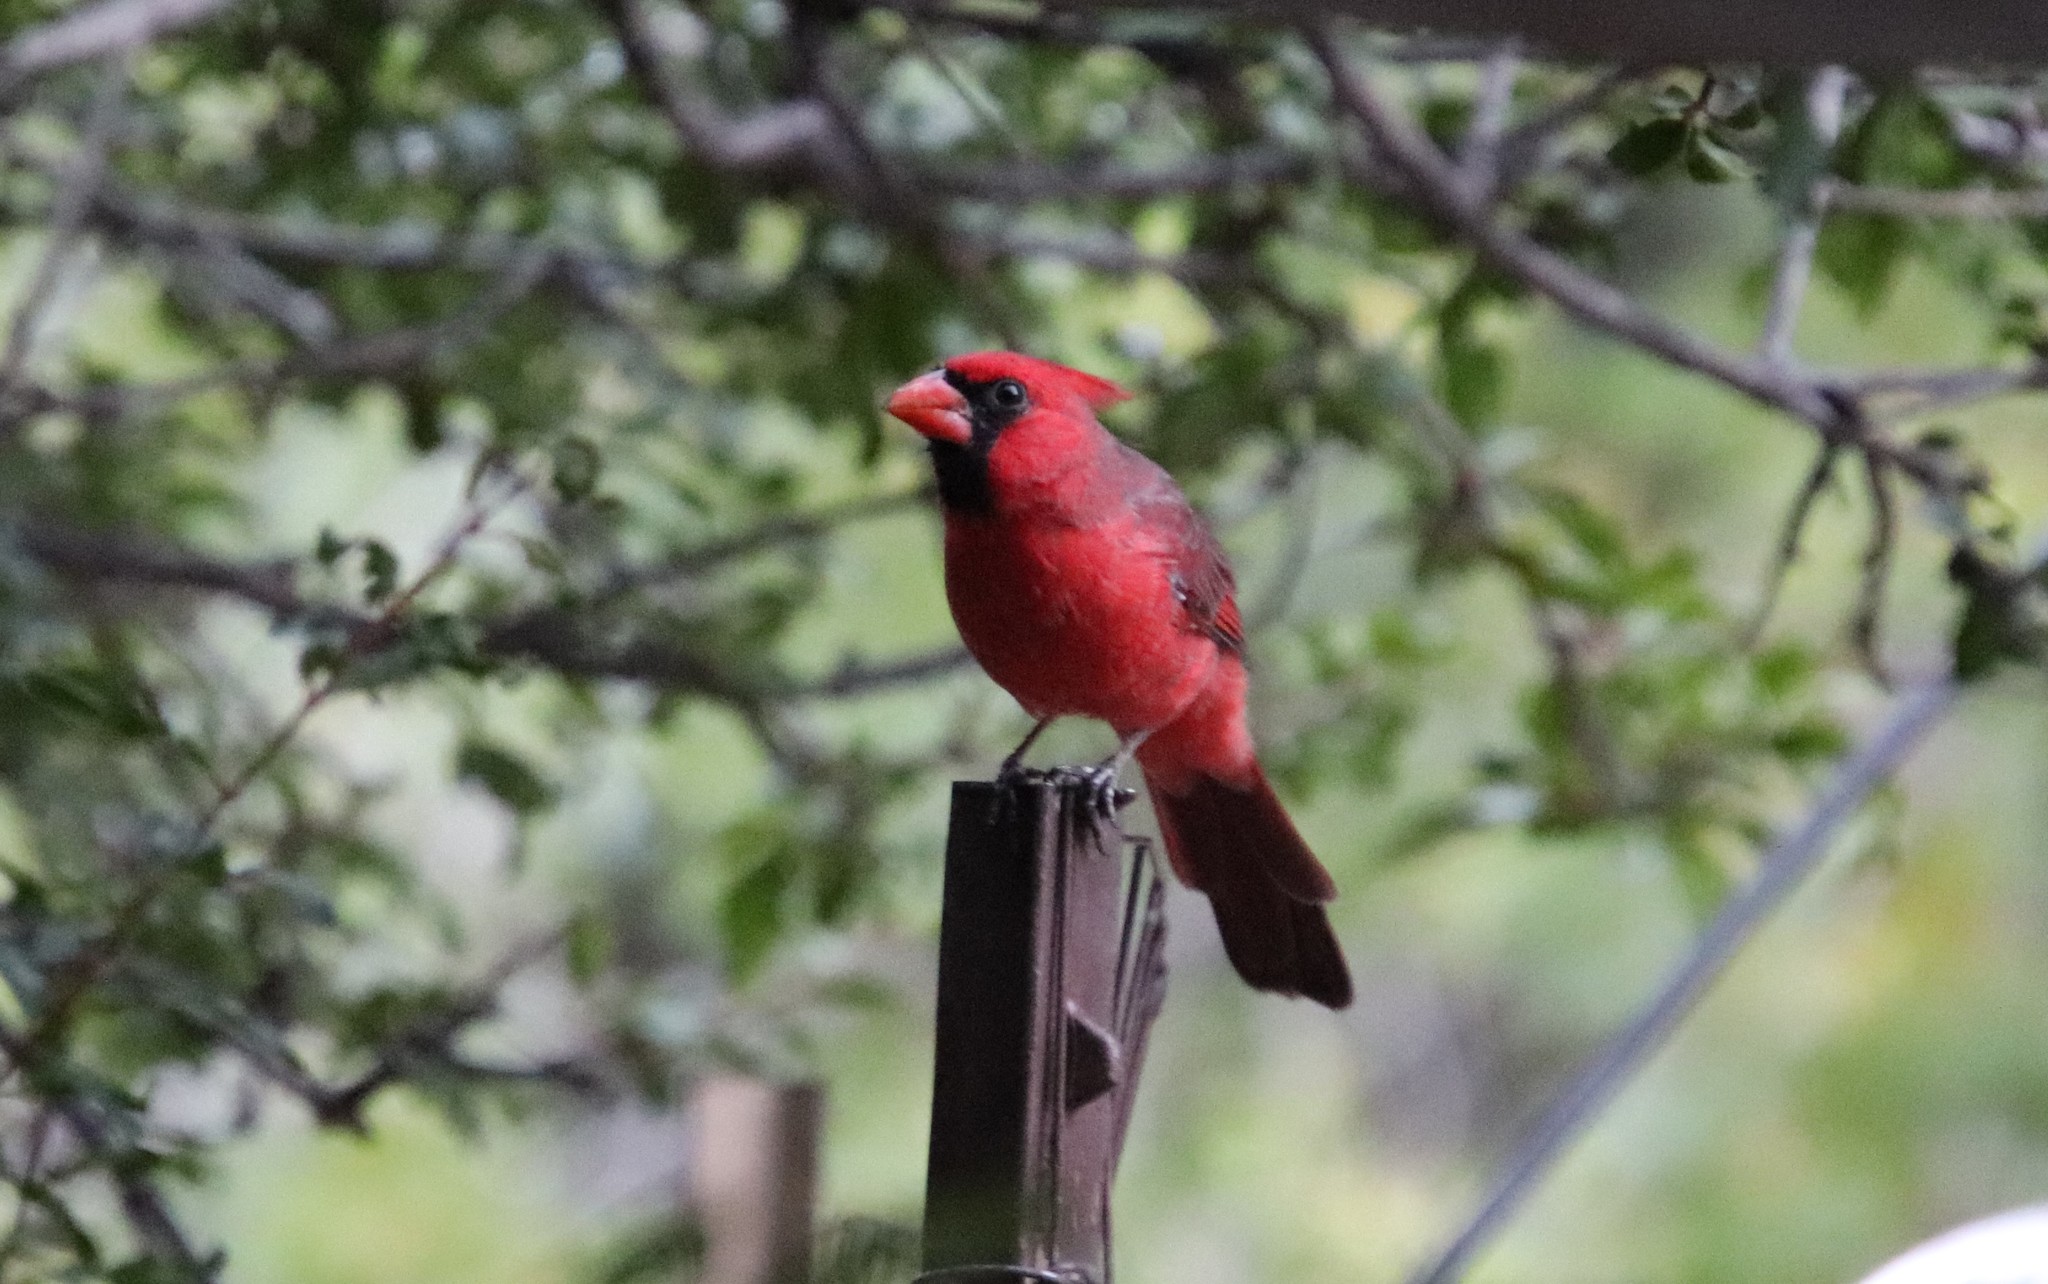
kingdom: Animalia
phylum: Chordata
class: Aves
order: Passeriformes
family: Cardinalidae
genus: Cardinalis
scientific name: Cardinalis cardinalis
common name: Northern cardinal
